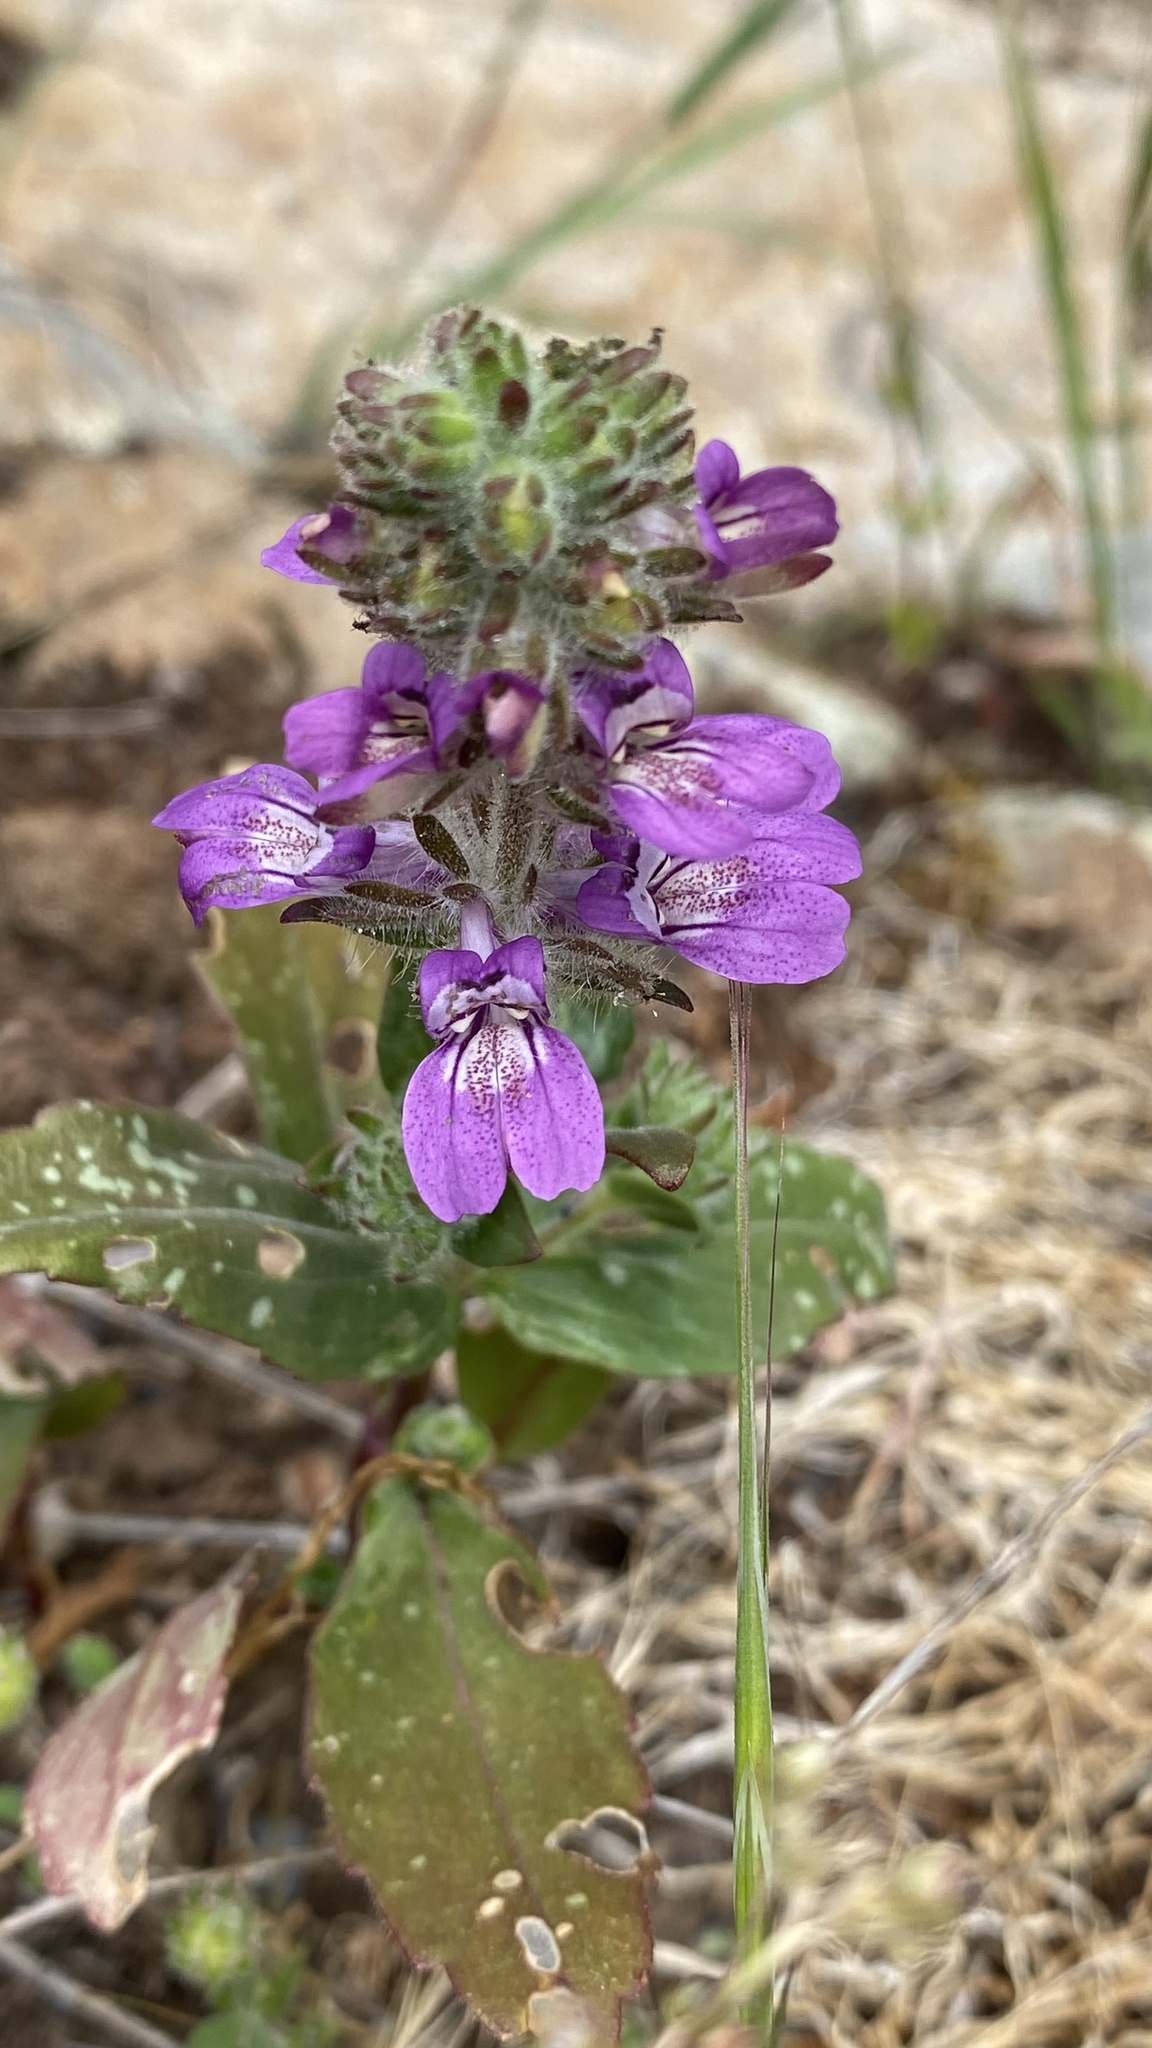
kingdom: Plantae
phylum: Tracheophyta
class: Magnoliopsida
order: Lamiales
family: Plantaginaceae
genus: Collinsia
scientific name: Collinsia tinctoria
